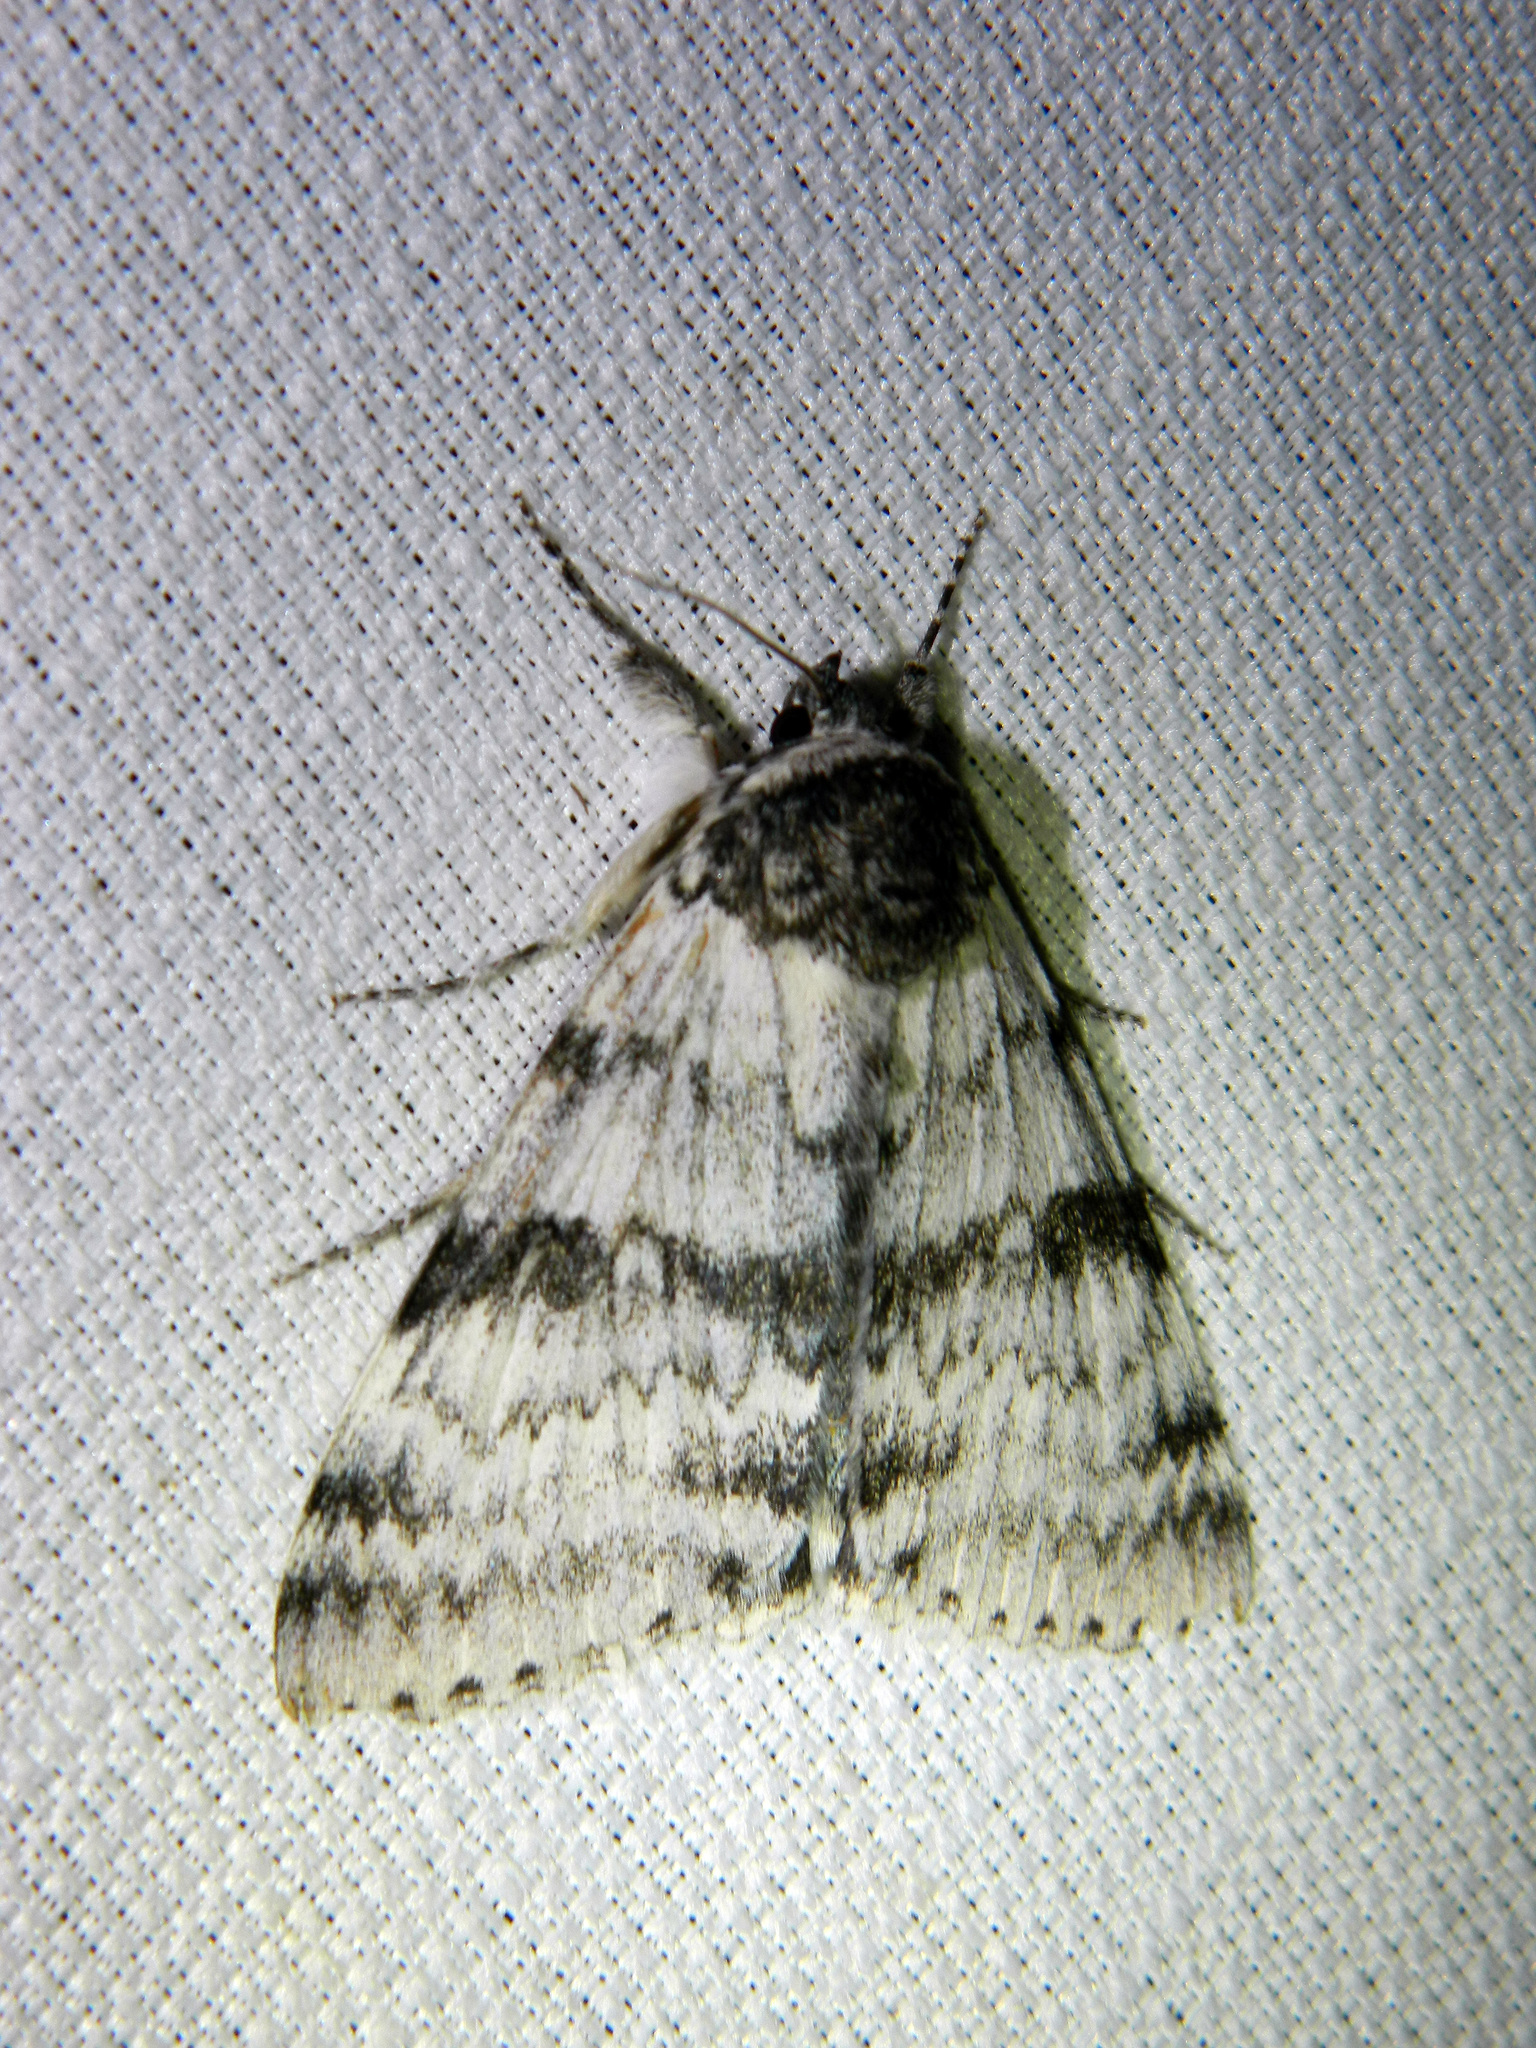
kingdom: Animalia
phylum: Arthropoda
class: Insecta
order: Lepidoptera
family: Erebidae
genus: Catocala
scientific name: Catocala relicta
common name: White underwing
